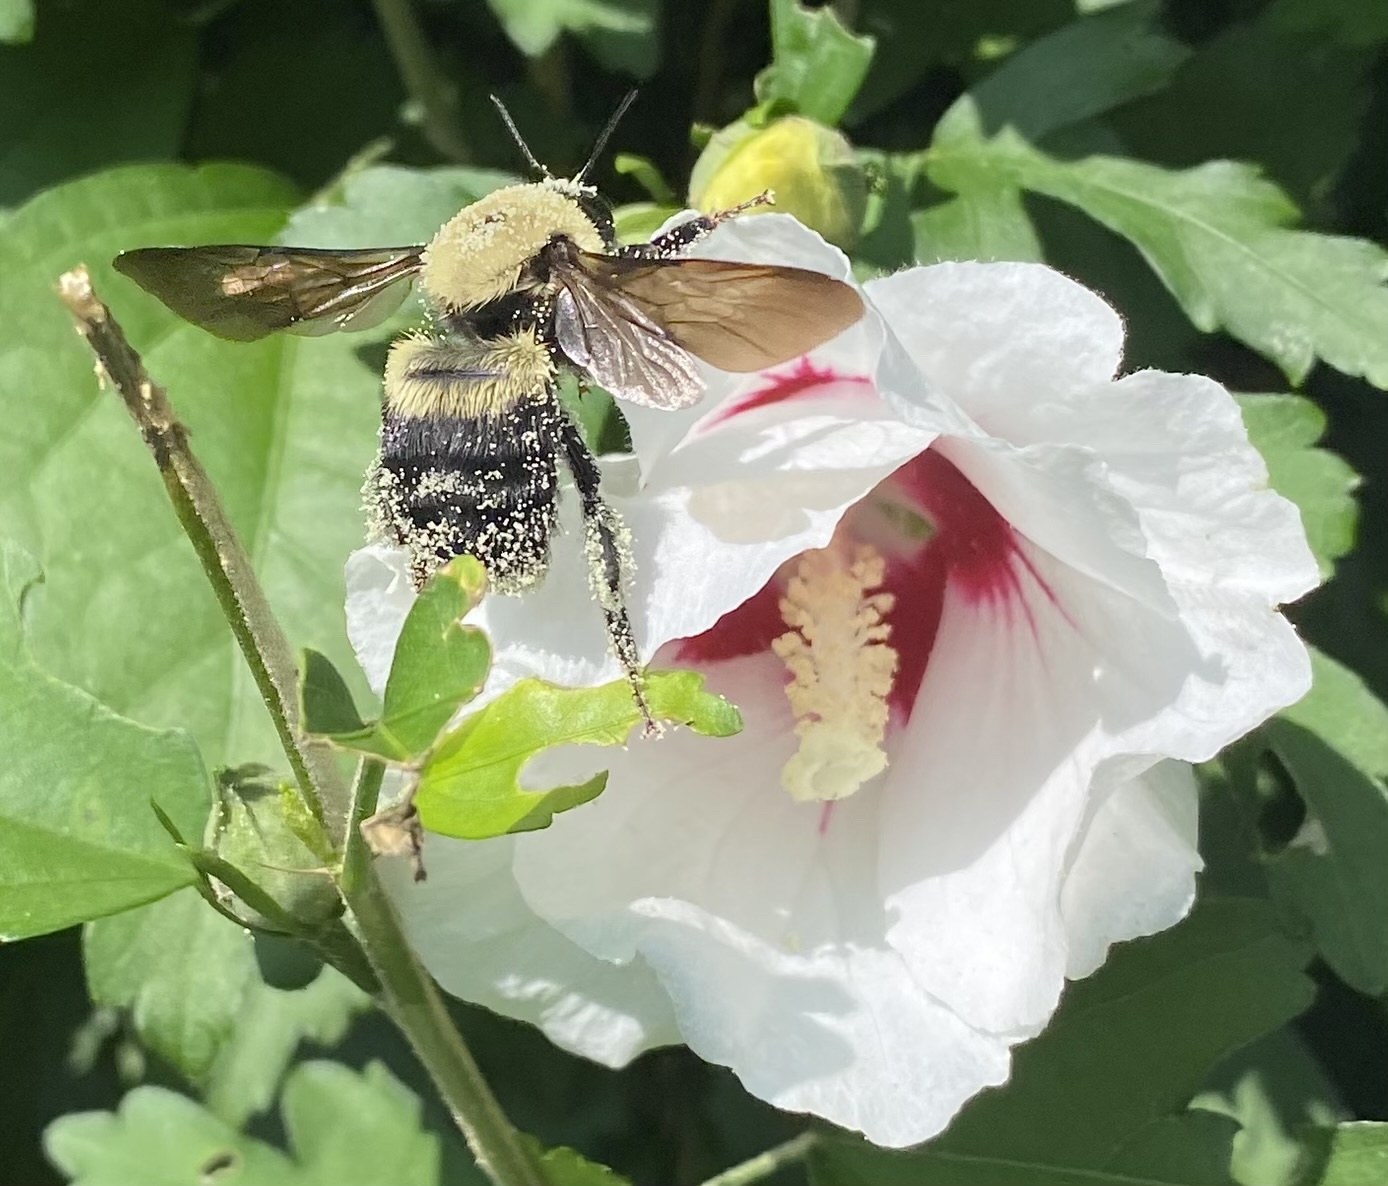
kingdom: Animalia
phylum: Arthropoda
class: Insecta
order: Hymenoptera
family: Apidae
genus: Bombus
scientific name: Bombus griseocollis
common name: Brown-belted bumble bee
